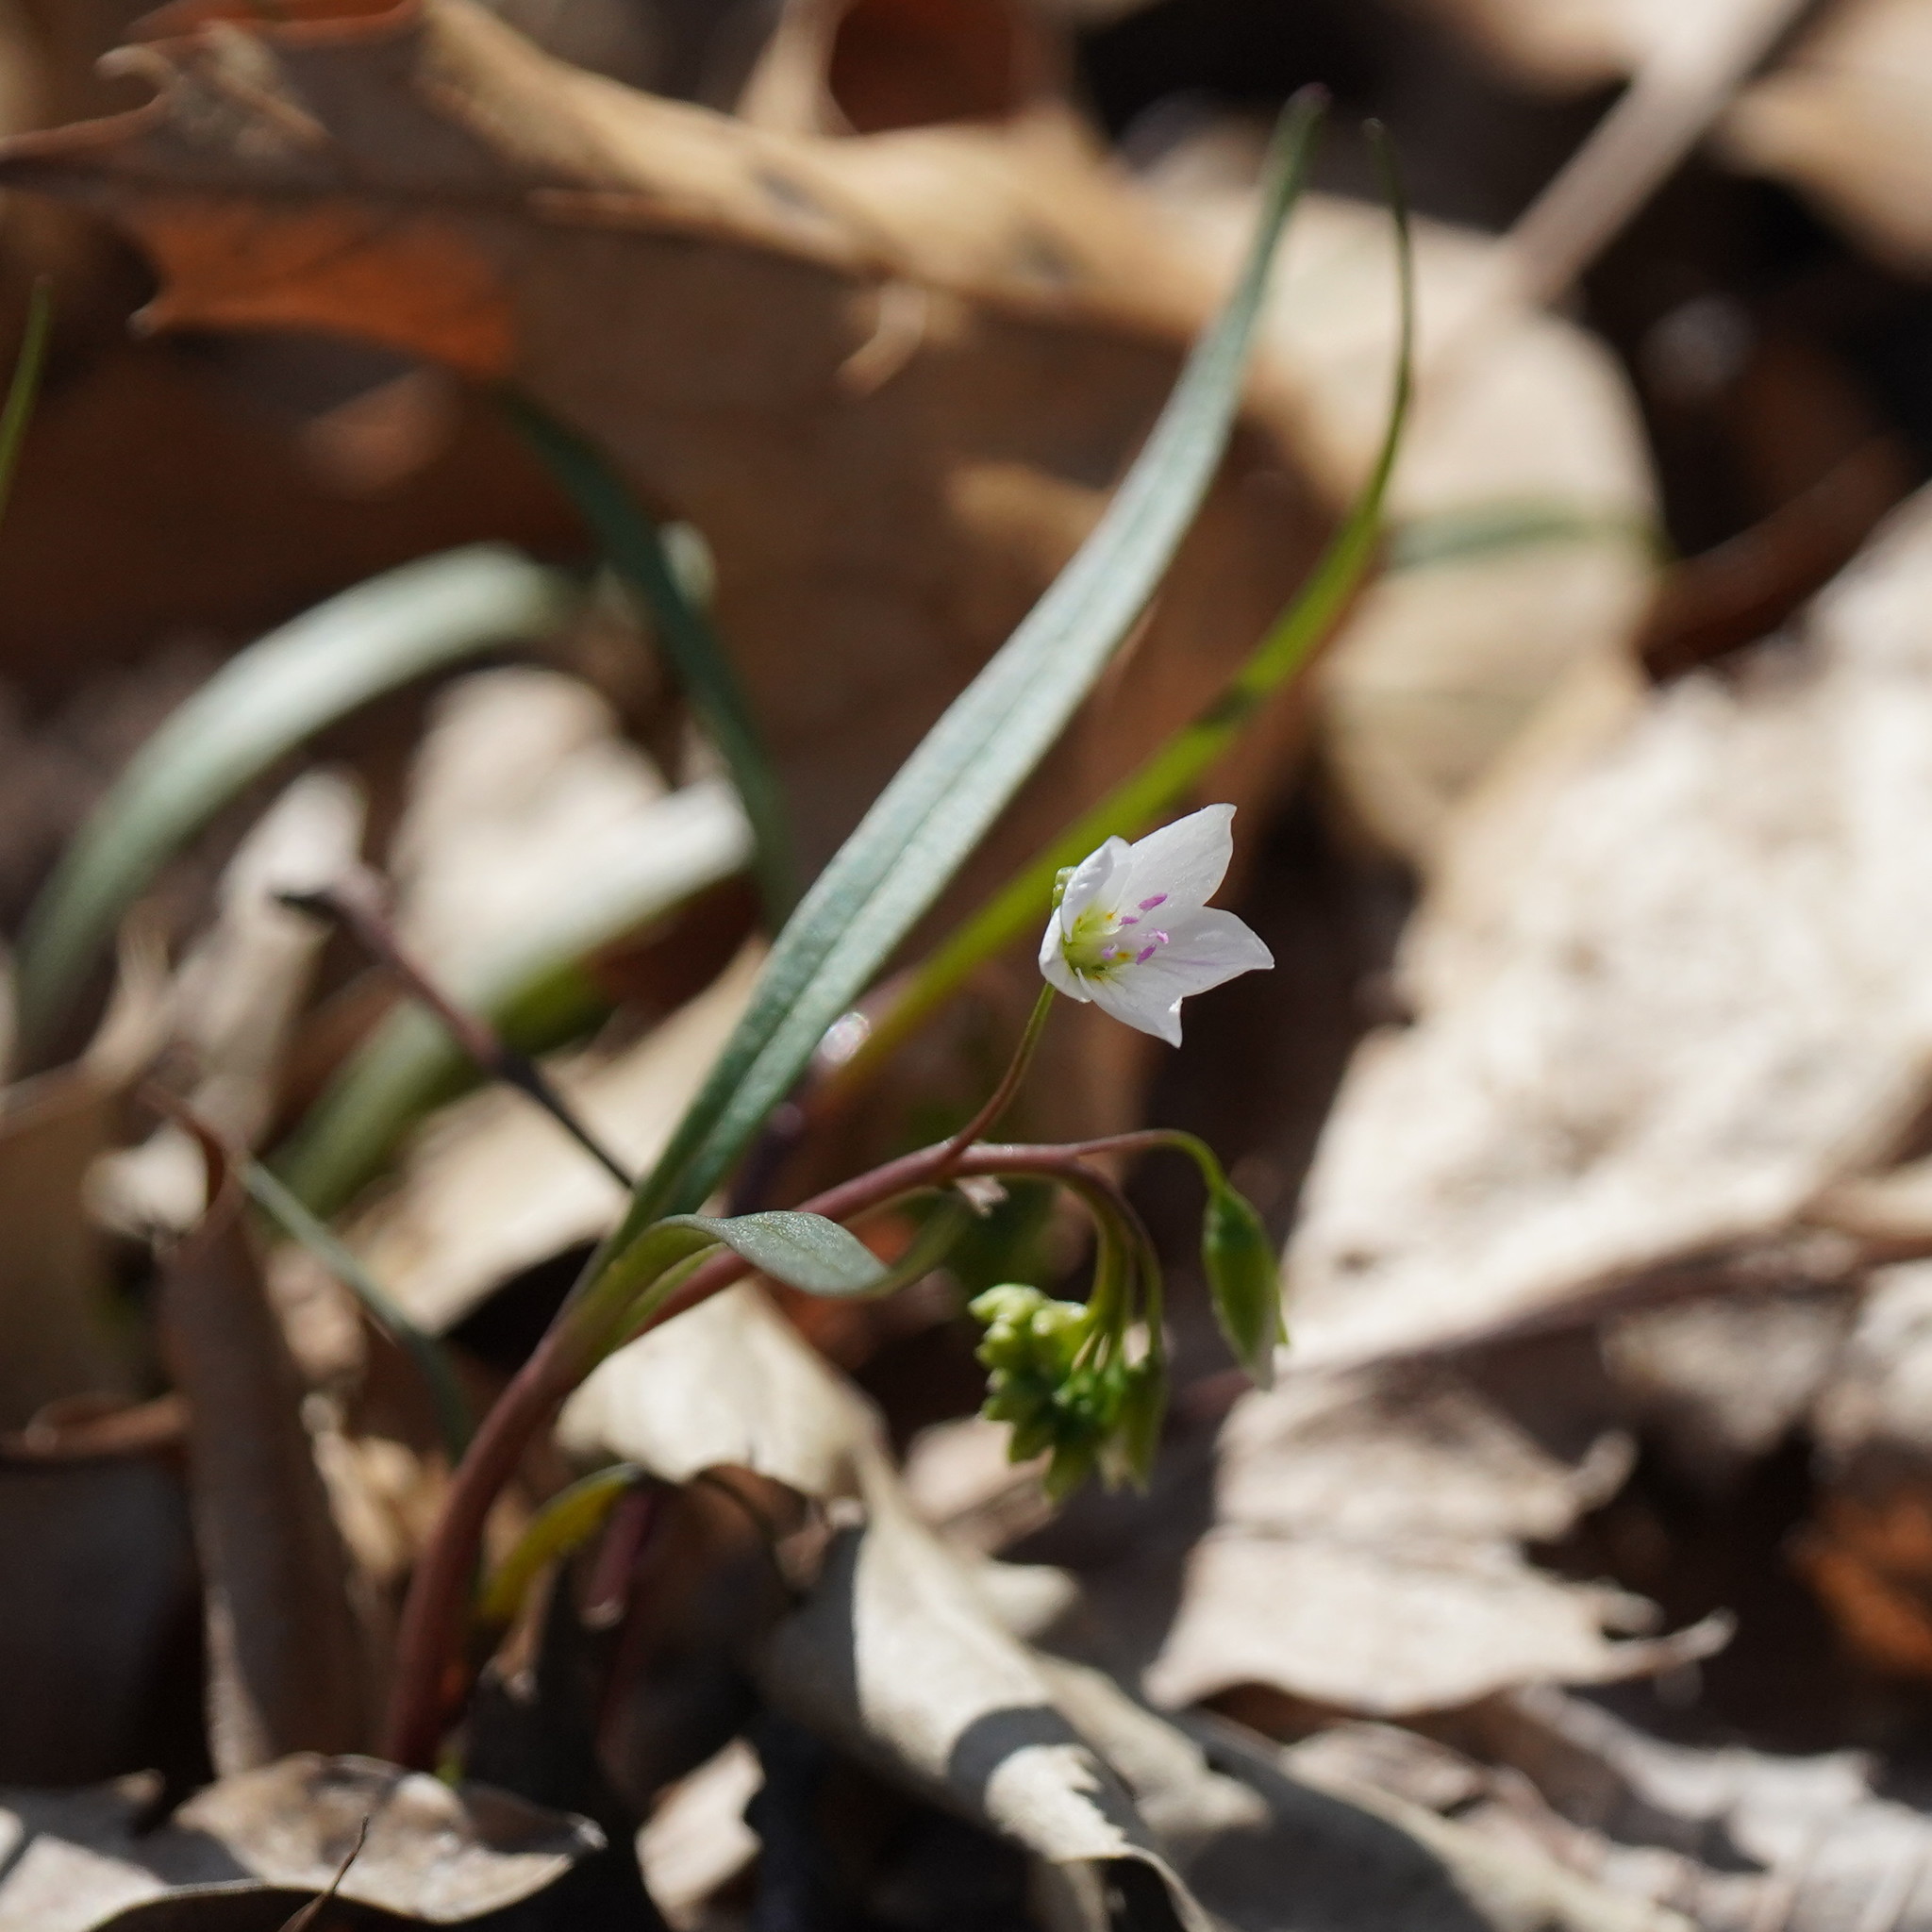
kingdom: Plantae
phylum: Tracheophyta
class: Magnoliopsida
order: Caryophyllales
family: Montiaceae
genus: Claytonia
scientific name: Claytonia virginica
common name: Virginia springbeauty
